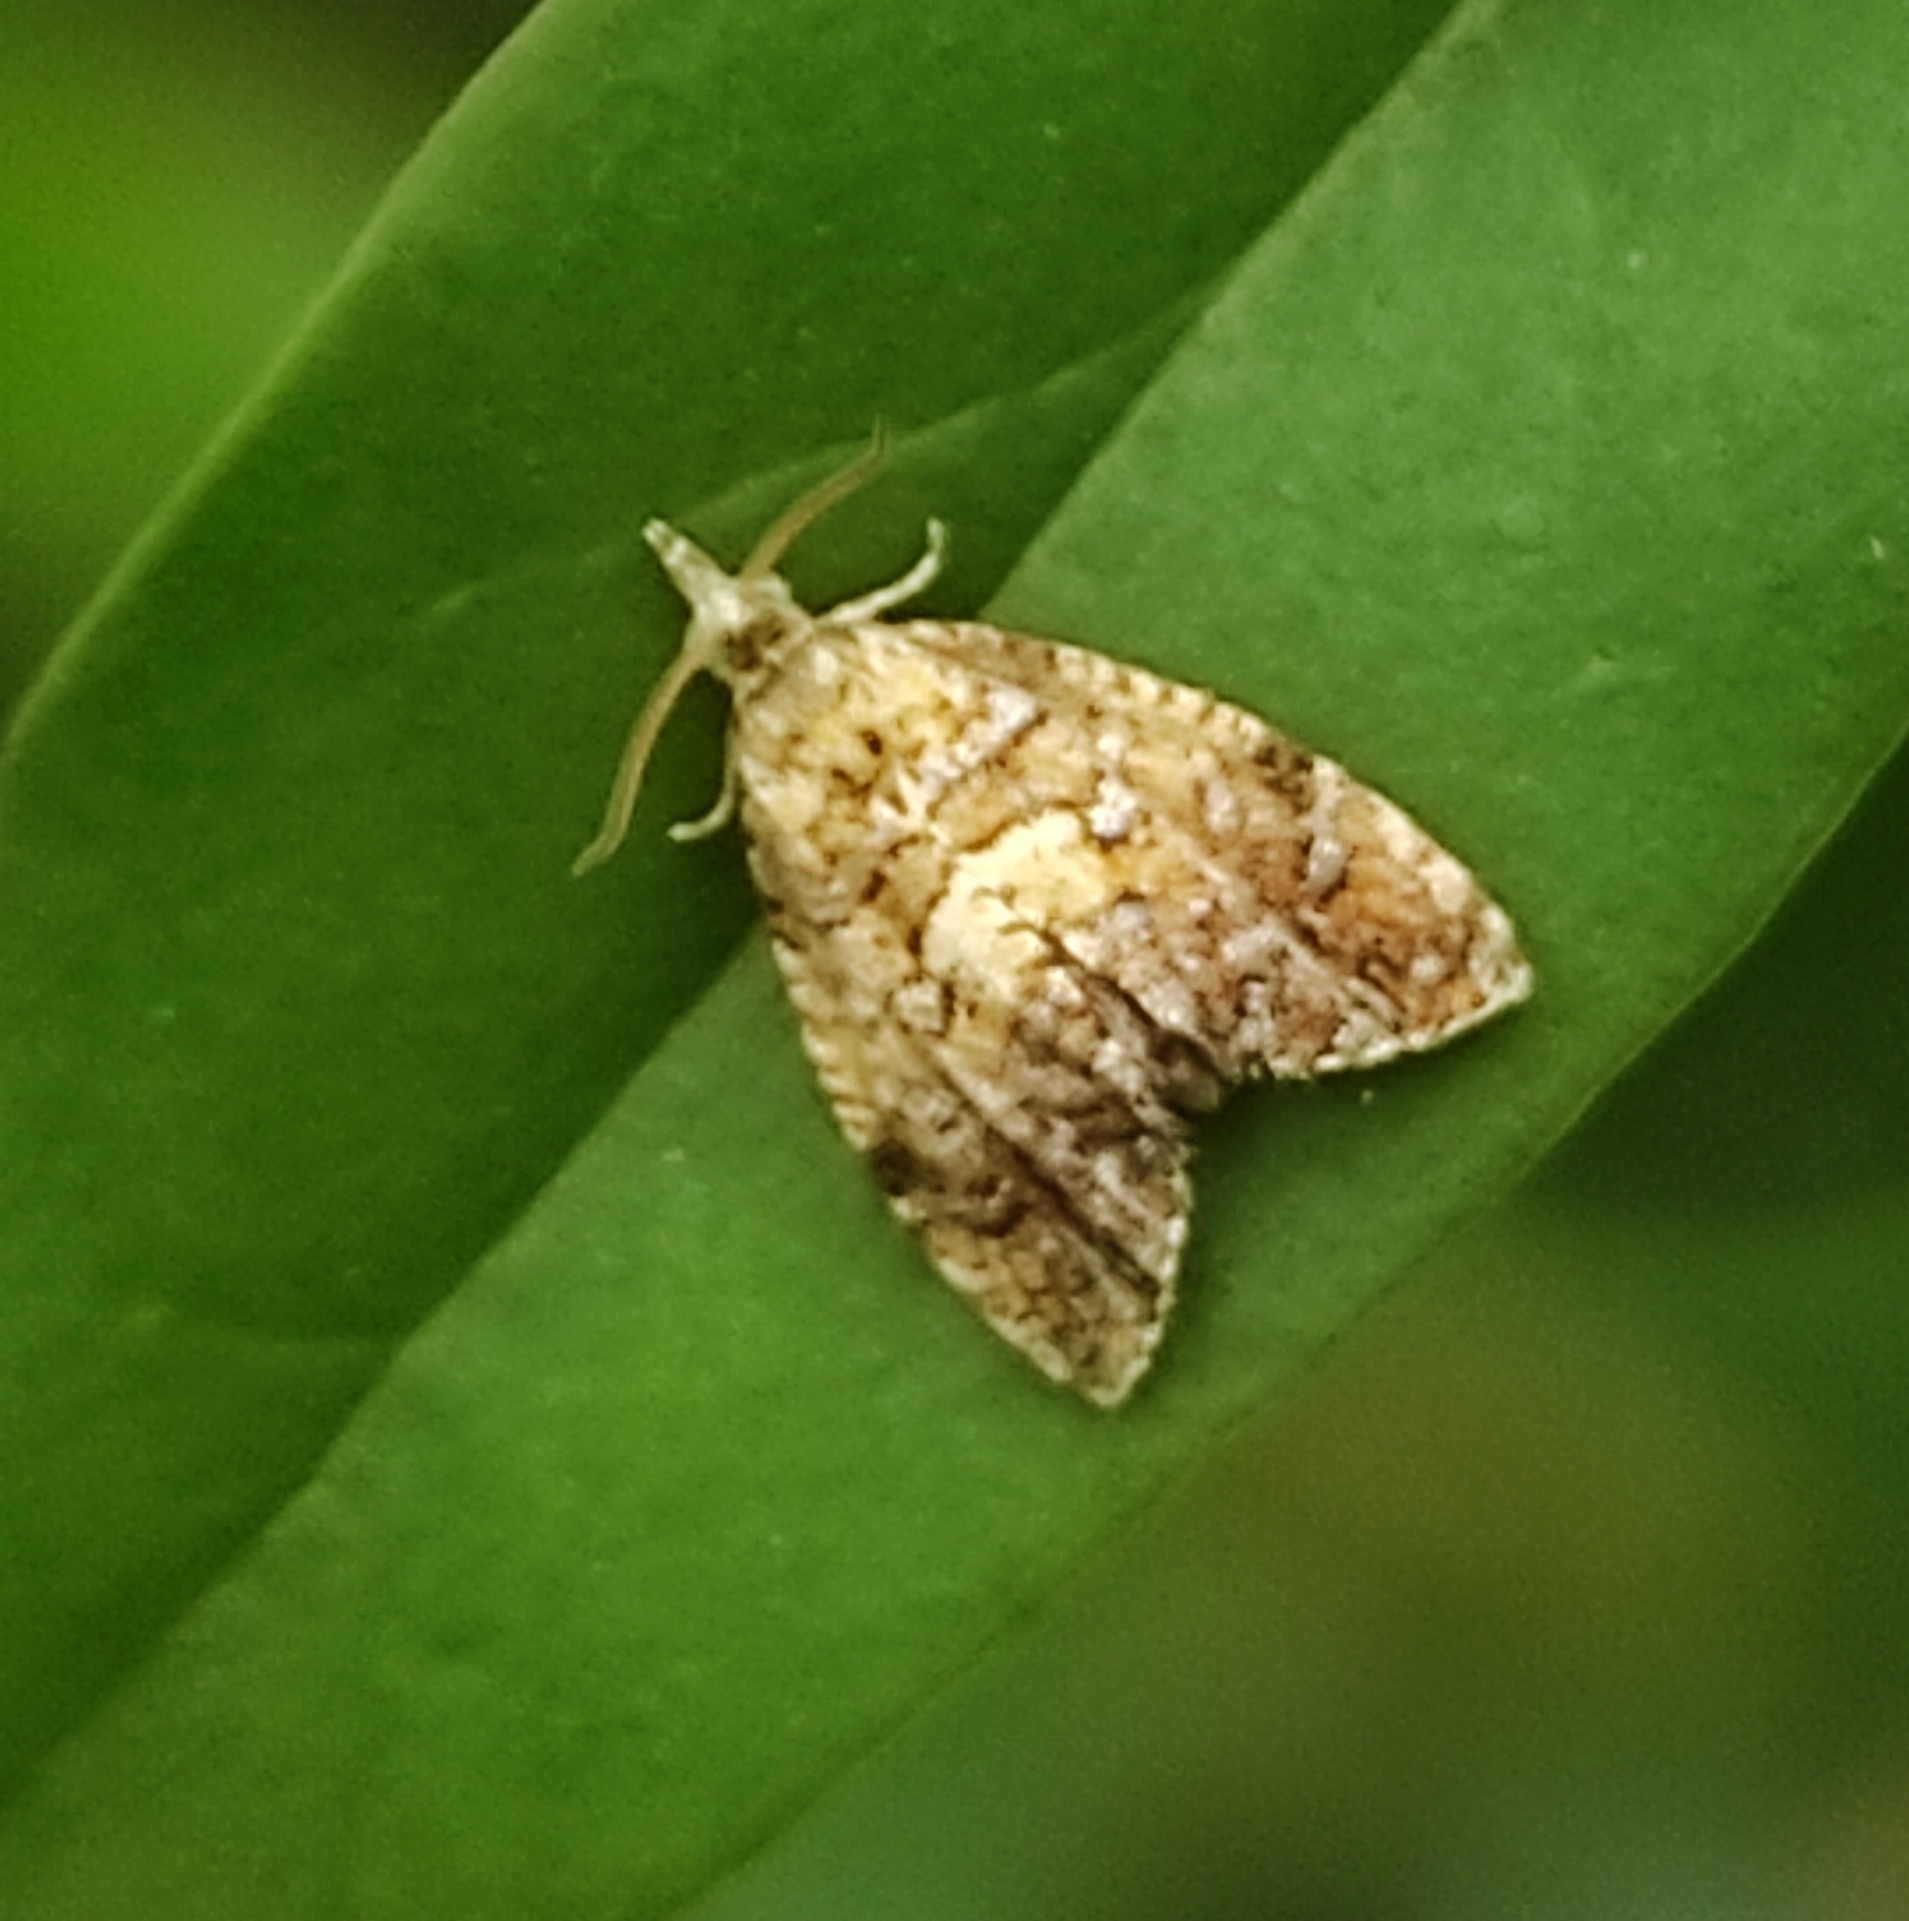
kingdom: Animalia
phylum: Arthropoda
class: Insecta
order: Lepidoptera
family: Tortricidae
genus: Pseudargyrotoza
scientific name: Pseudargyrotoza conwagana
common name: Yellow-spot twist
